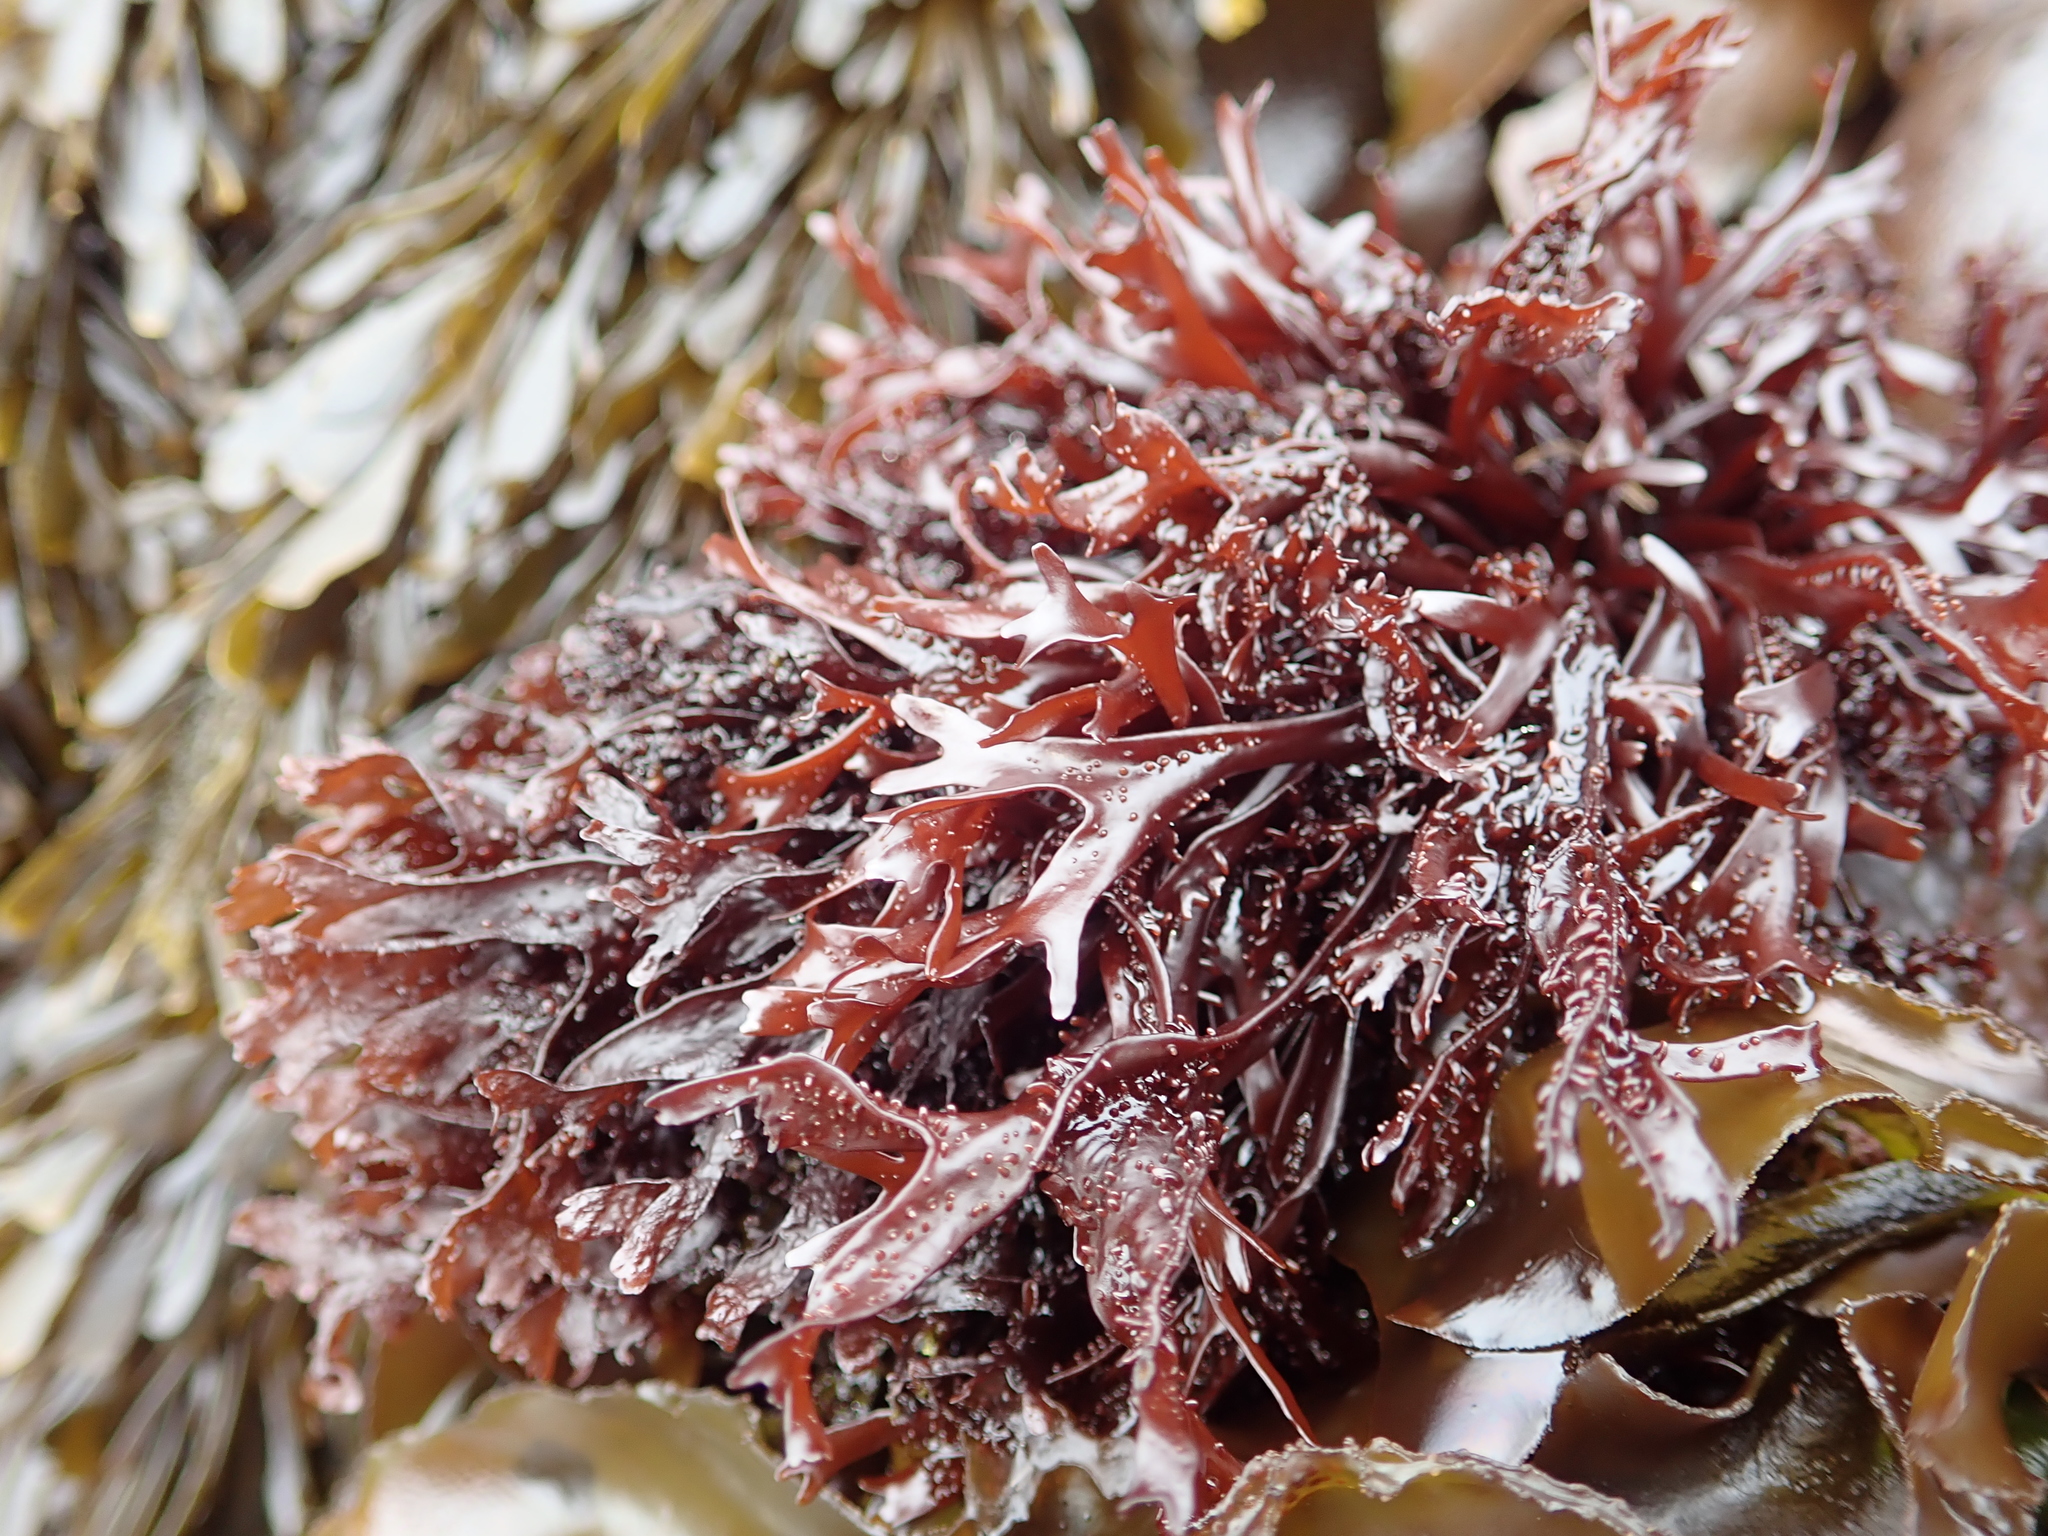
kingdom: Plantae
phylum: Rhodophyta
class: Florideophyceae
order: Gigartinales
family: Phyllophoraceae
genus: Mastocarpus
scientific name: Mastocarpus jardinii
